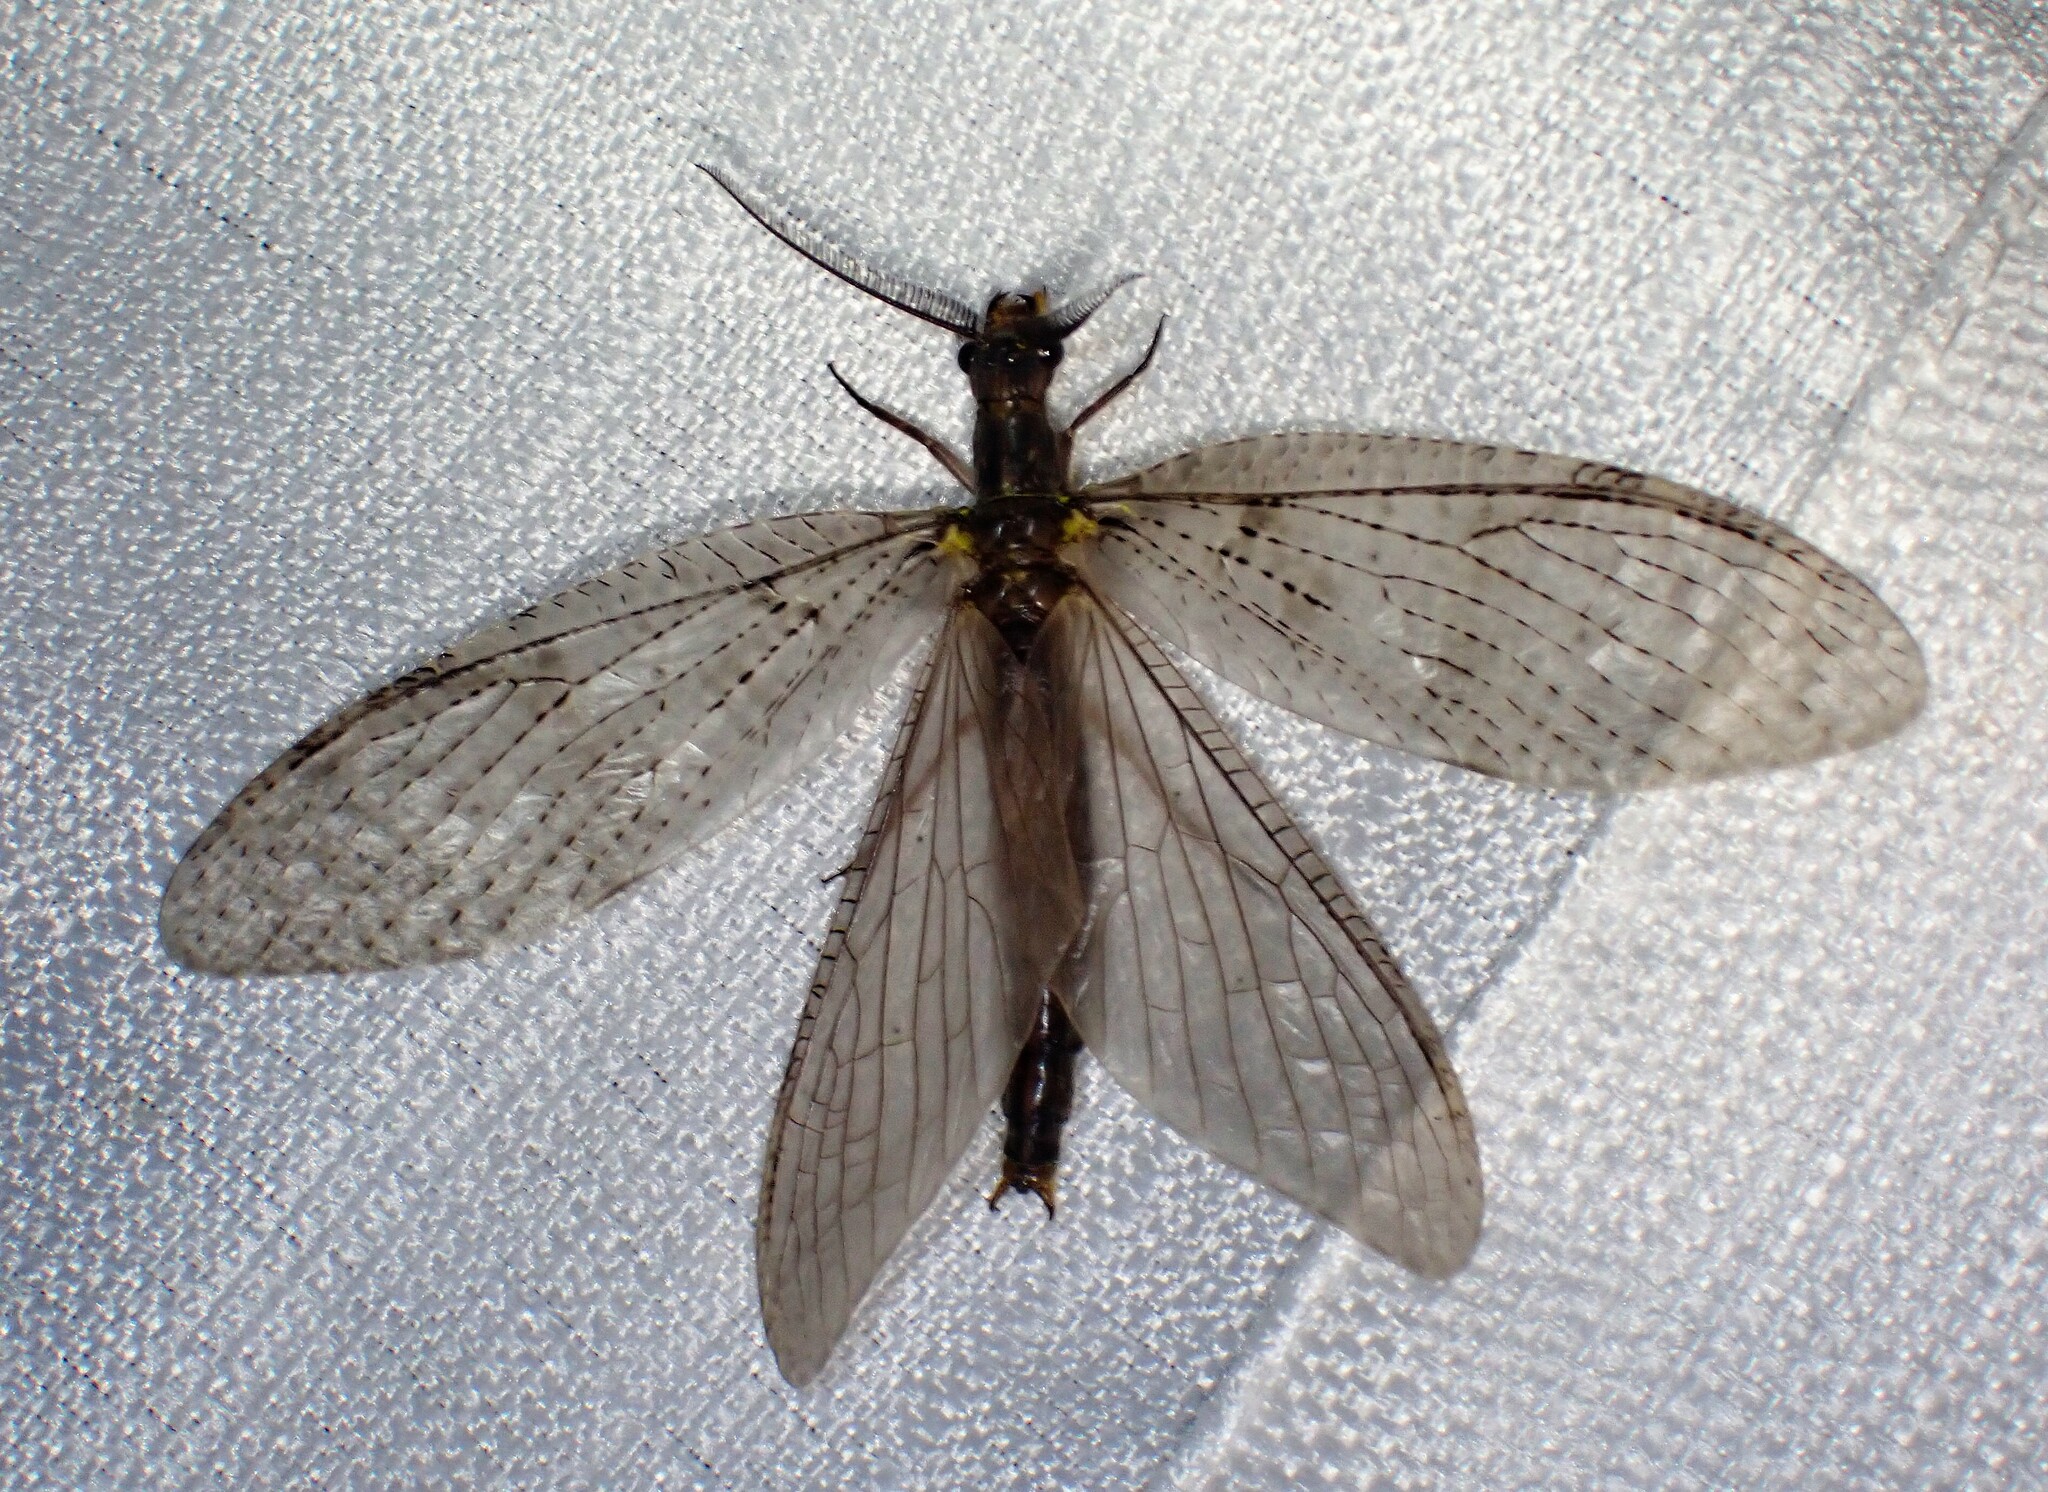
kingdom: Animalia
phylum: Arthropoda
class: Insecta
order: Megaloptera
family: Corydalidae
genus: Chauliodes
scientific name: Chauliodes pectinicornis
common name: Summer fishfly
